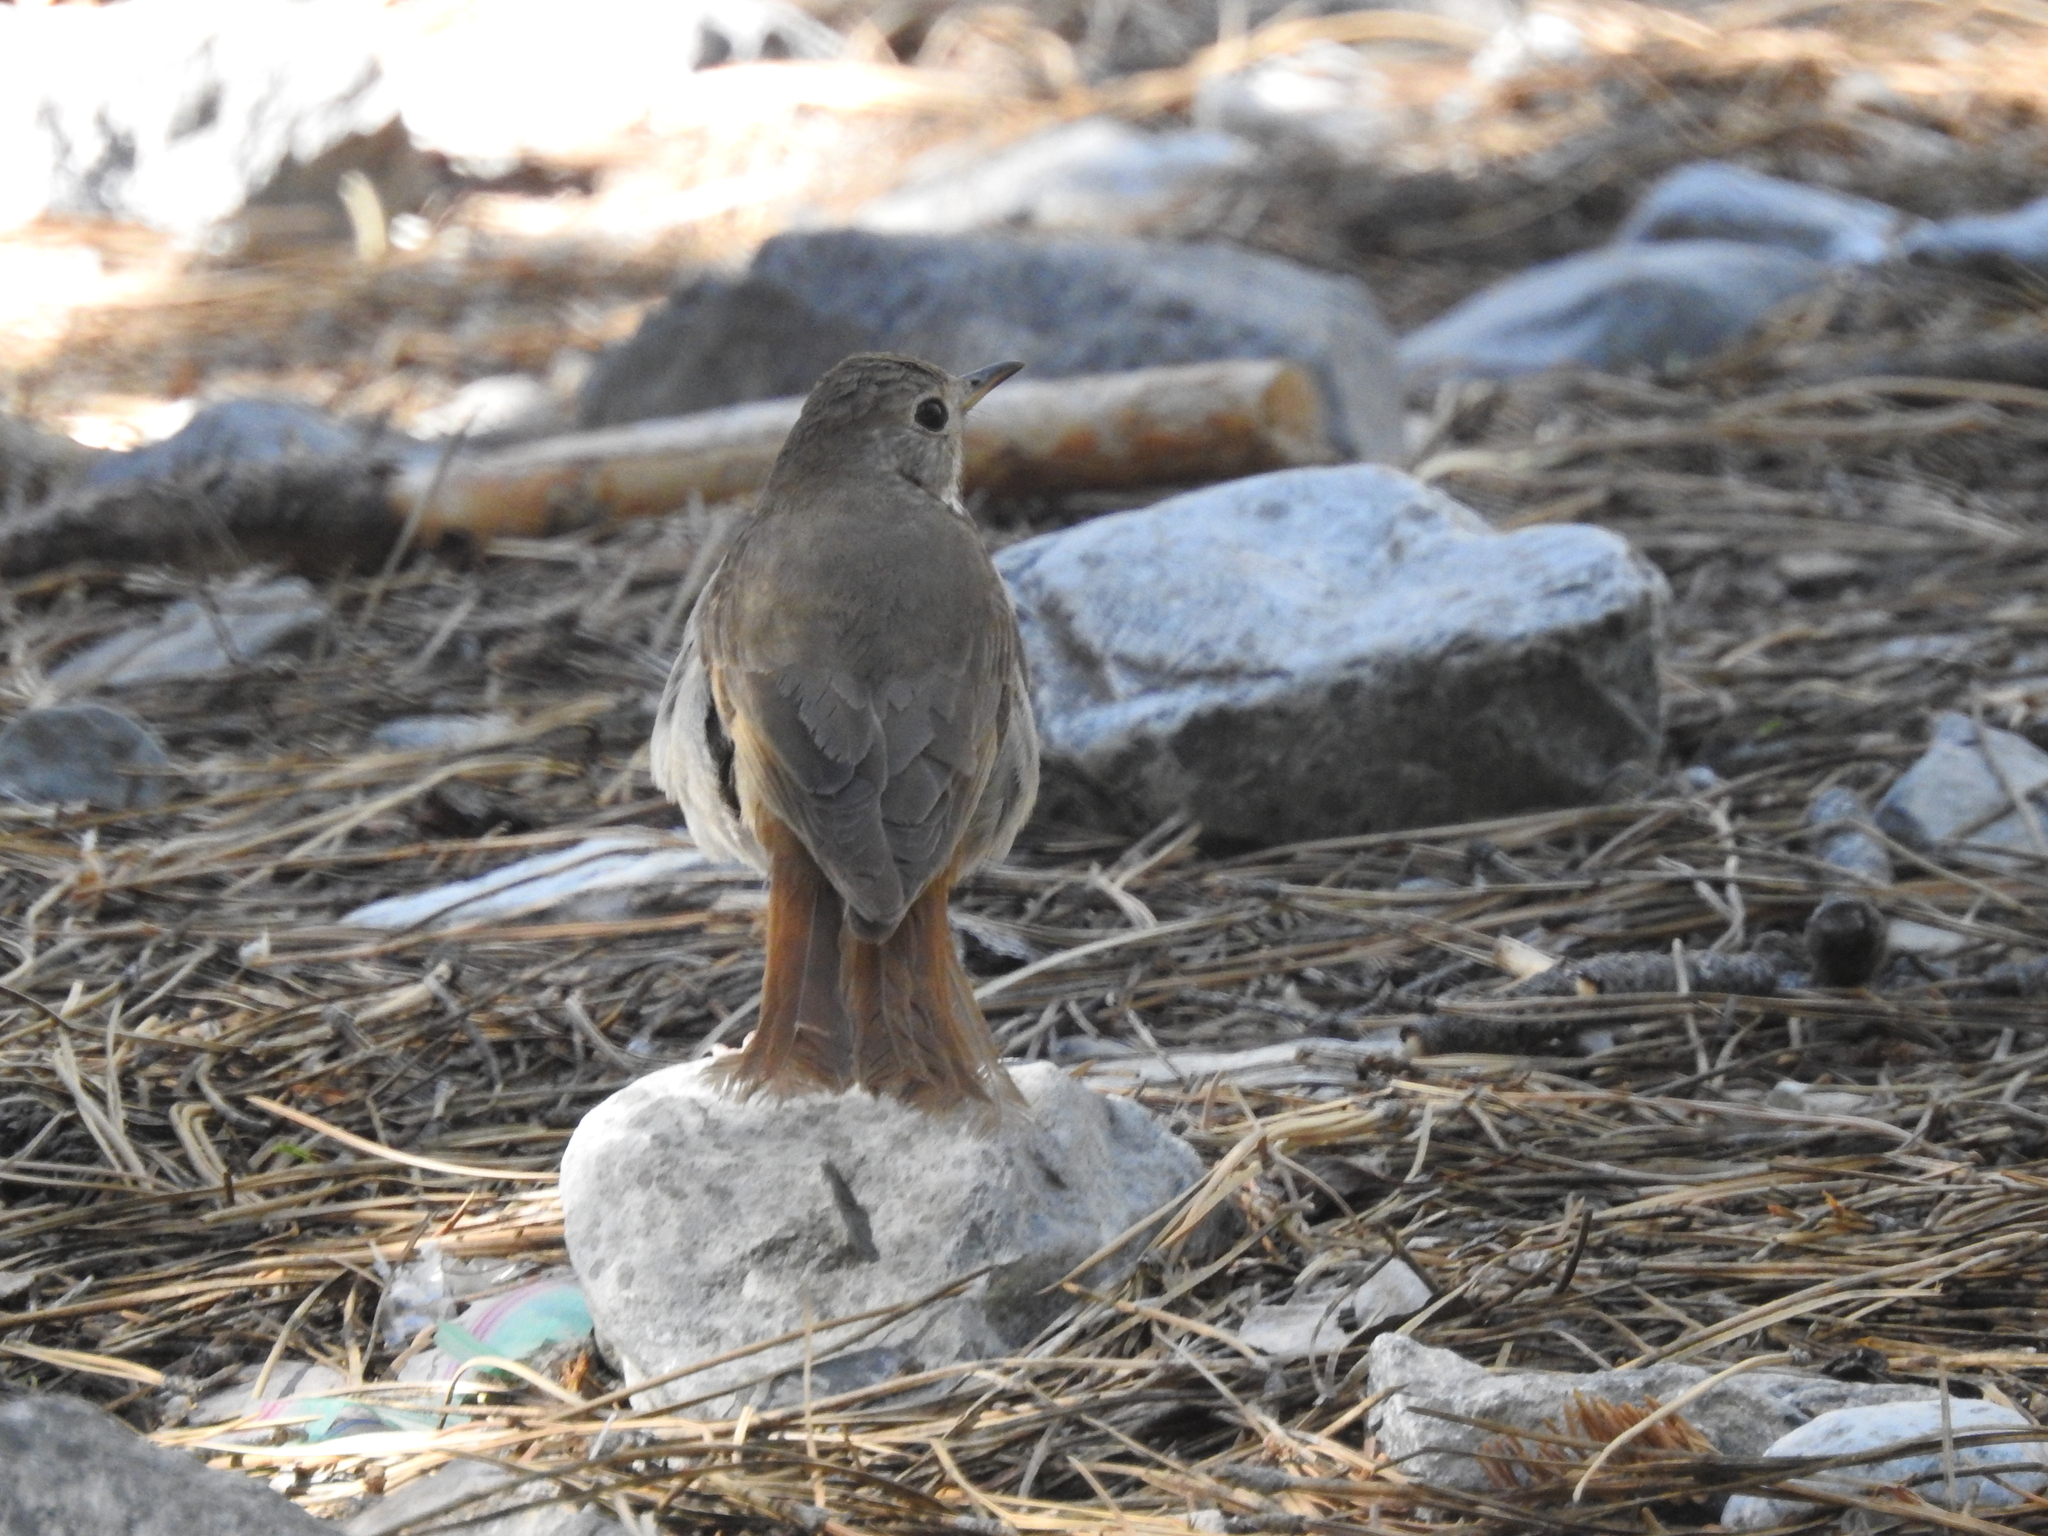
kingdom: Animalia
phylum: Chordata
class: Aves
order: Passeriformes
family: Turdidae
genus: Catharus
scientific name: Catharus guttatus
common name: Hermit thrush
